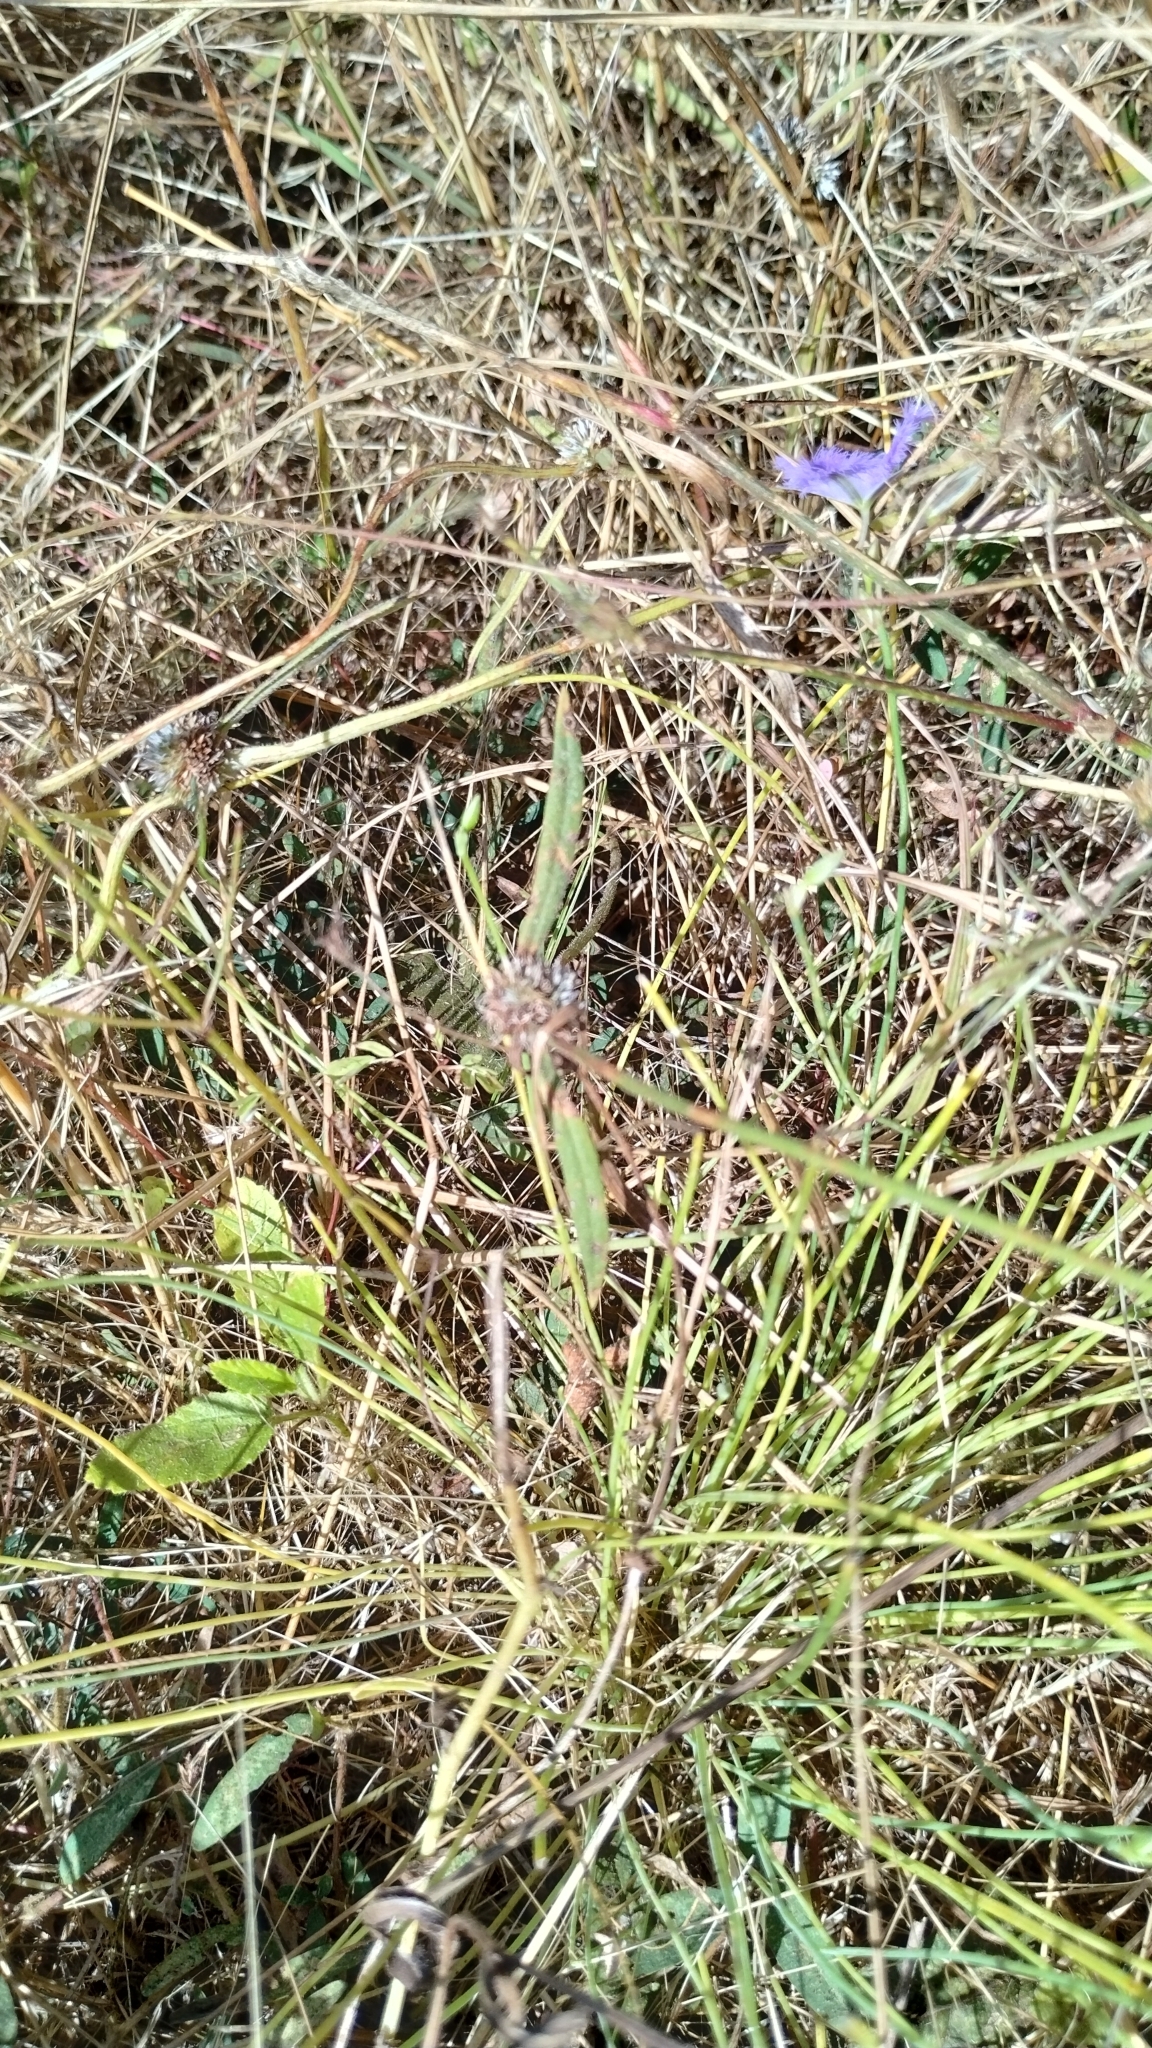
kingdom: Plantae
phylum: Tracheophyta
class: Liliopsida
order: Asparagales
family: Asparagaceae
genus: Thysanotus
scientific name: Thysanotus chinensis
